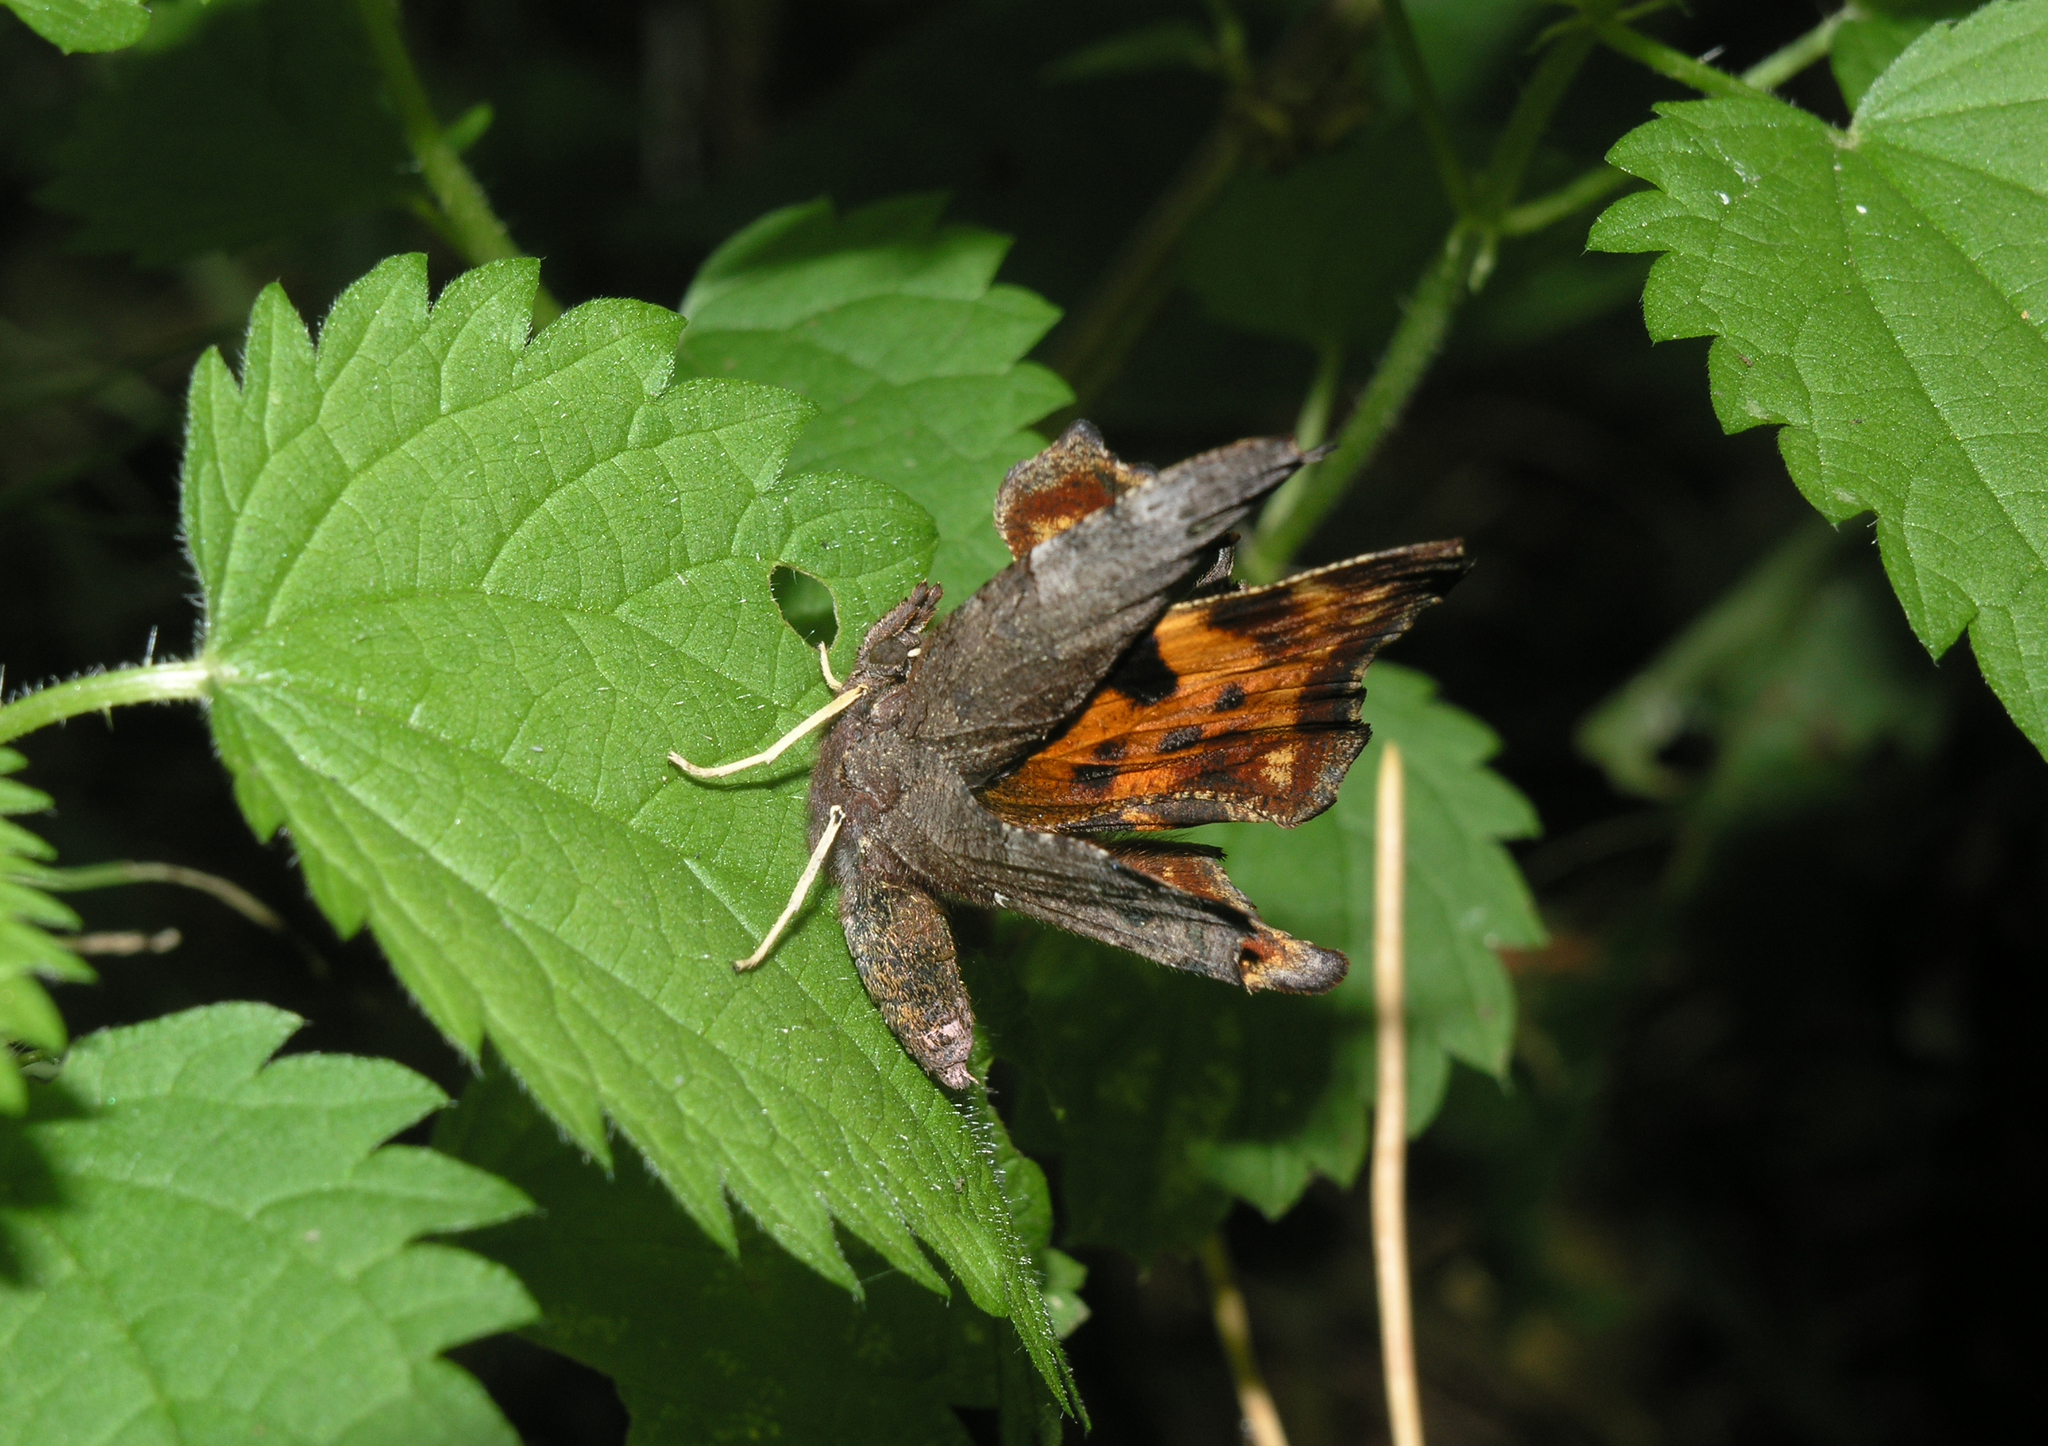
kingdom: Animalia
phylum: Arthropoda
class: Insecta
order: Lepidoptera
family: Nymphalidae
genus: Polygonia
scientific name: Polygonia c-album
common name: Comma
